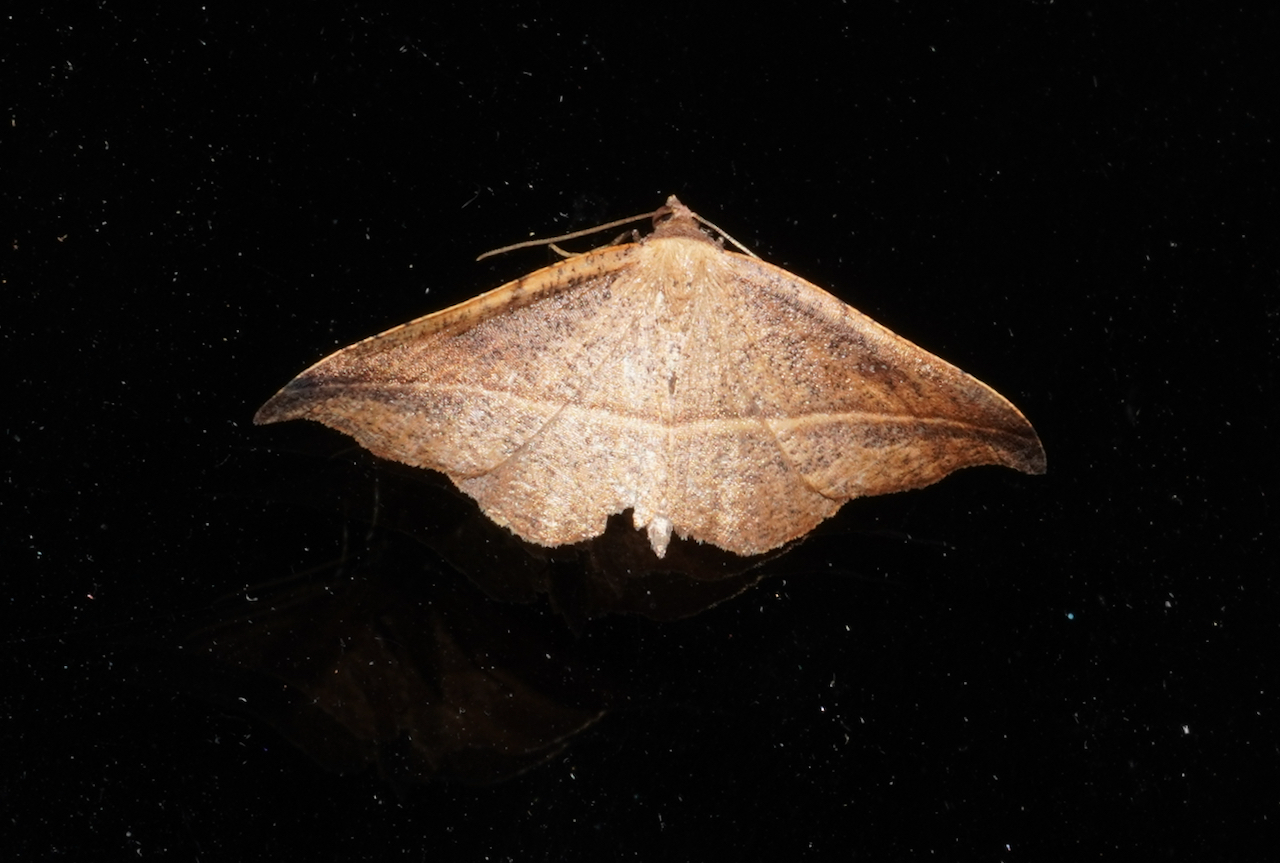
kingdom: Animalia
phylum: Arthropoda
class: Insecta
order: Lepidoptera
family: Geometridae
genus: Sarisa
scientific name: Sarisa muriferata
